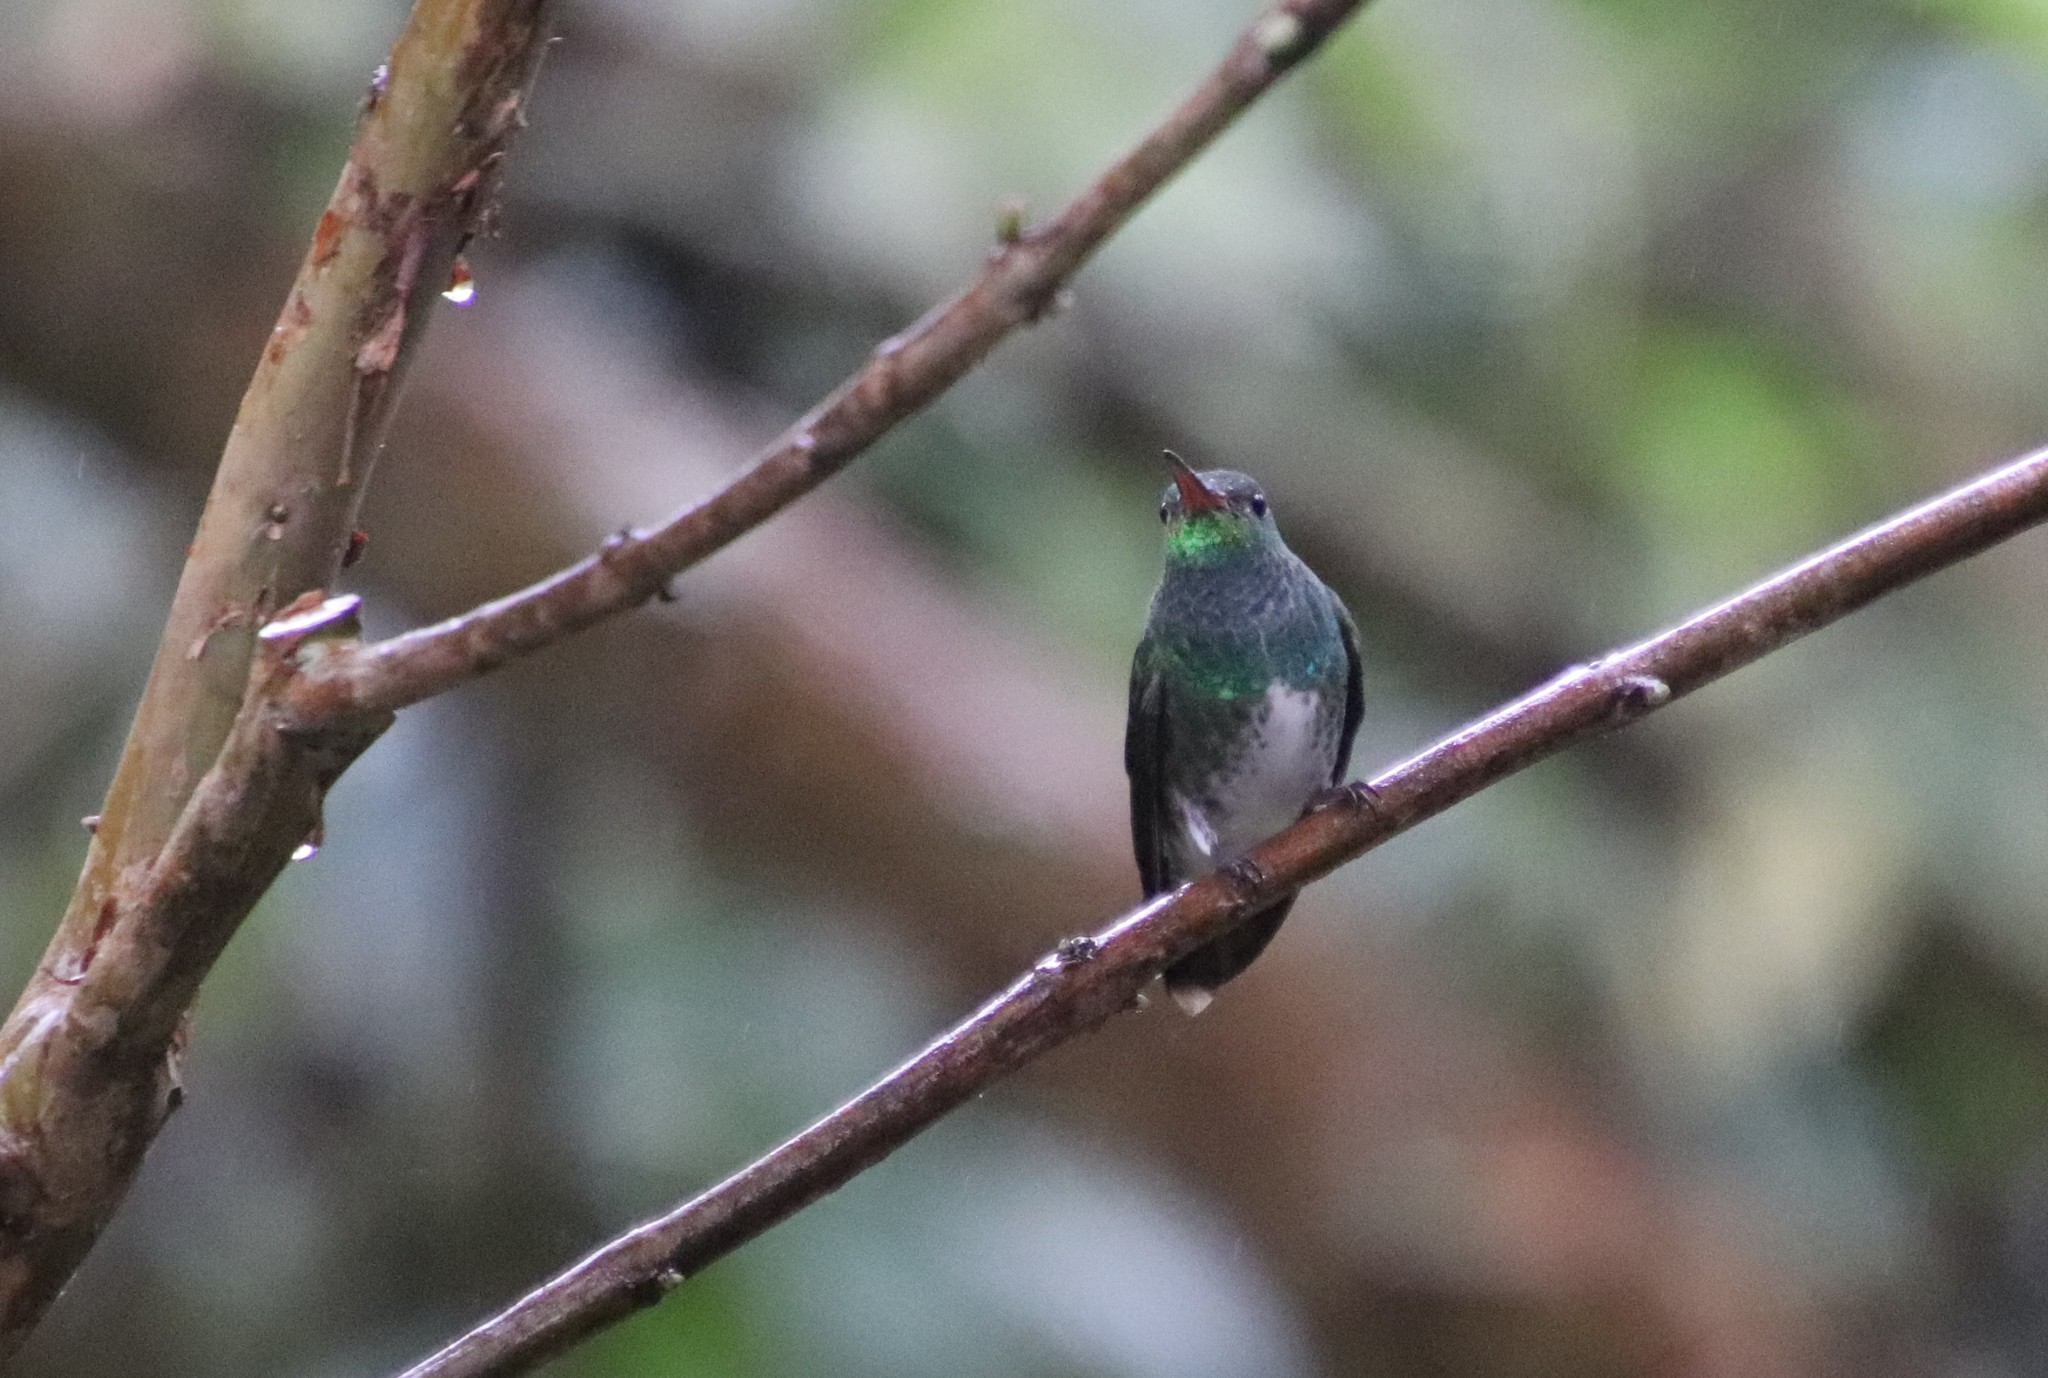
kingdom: Animalia
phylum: Chordata
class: Aves
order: Apodiformes
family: Trochilidae
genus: Chionomesa
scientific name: Chionomesa fimbriata
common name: Glittering-throated emerald
